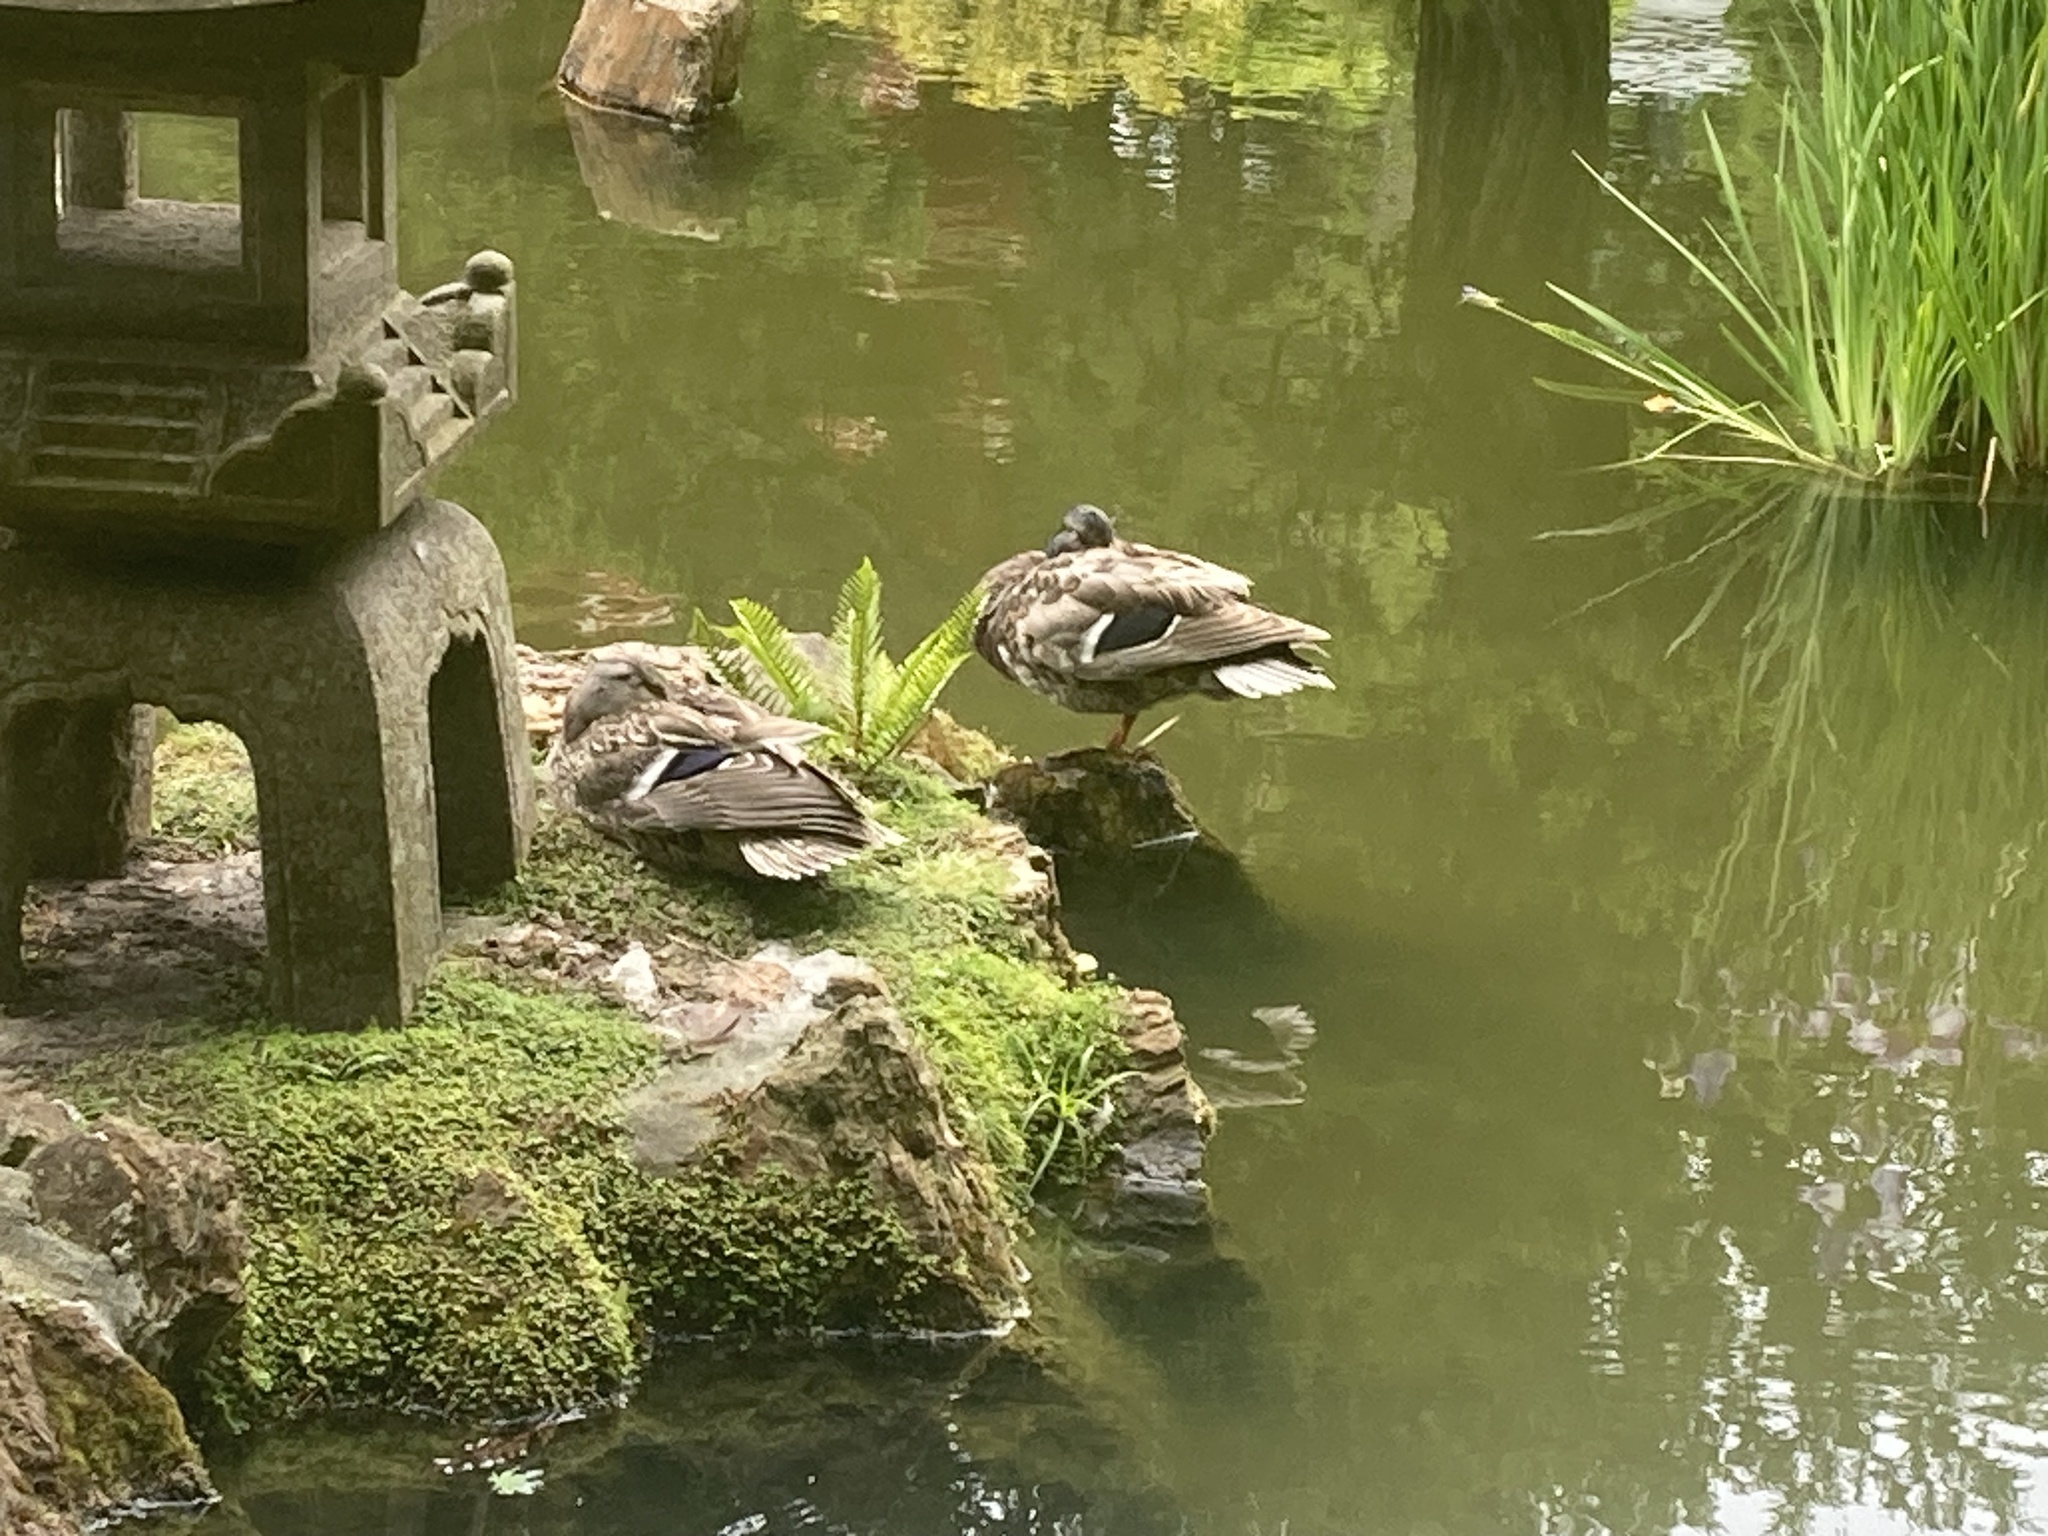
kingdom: Animalia
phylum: Chordata
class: Aves
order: Anseriformes
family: Anatidae
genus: Anas
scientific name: Anas platyrhynchos
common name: Mallard
